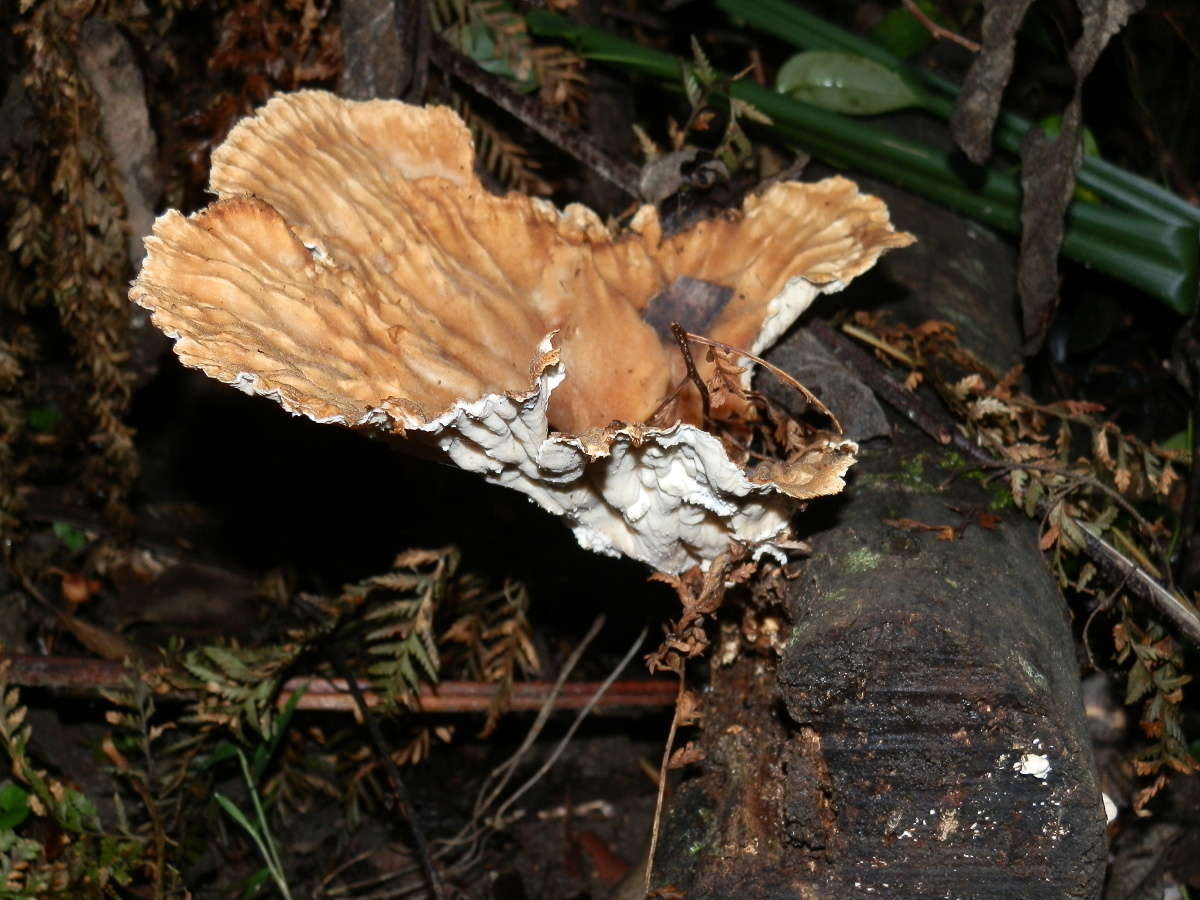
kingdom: Fungi
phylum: Basidiomycota
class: Agaricomycetes
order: Polyporales
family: Panaceae
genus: Cymatoderma
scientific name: Cymatoderma elegans
